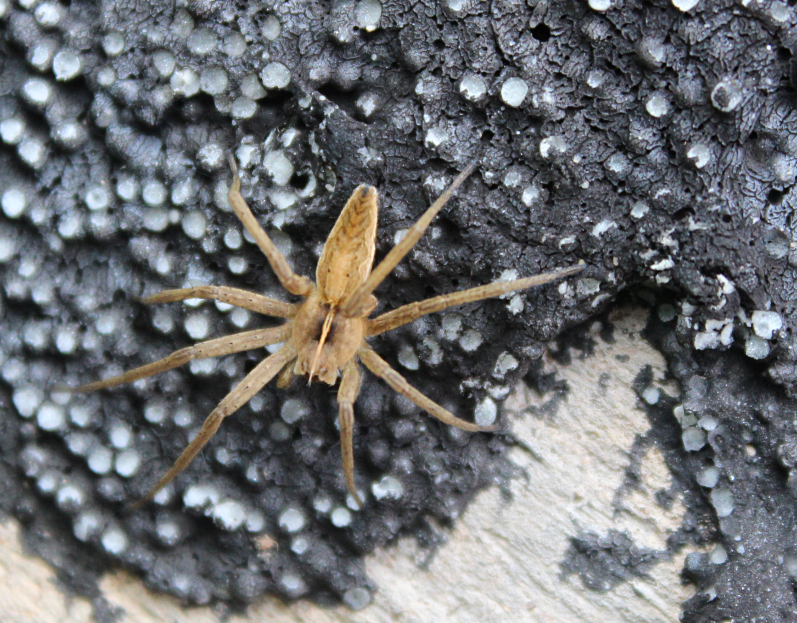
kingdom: Animalia
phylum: Arthropoda
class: Arachnida
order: Araneae
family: Pisauridae
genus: Pisaura
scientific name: Pisaura mirabilis
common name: Tent spider
